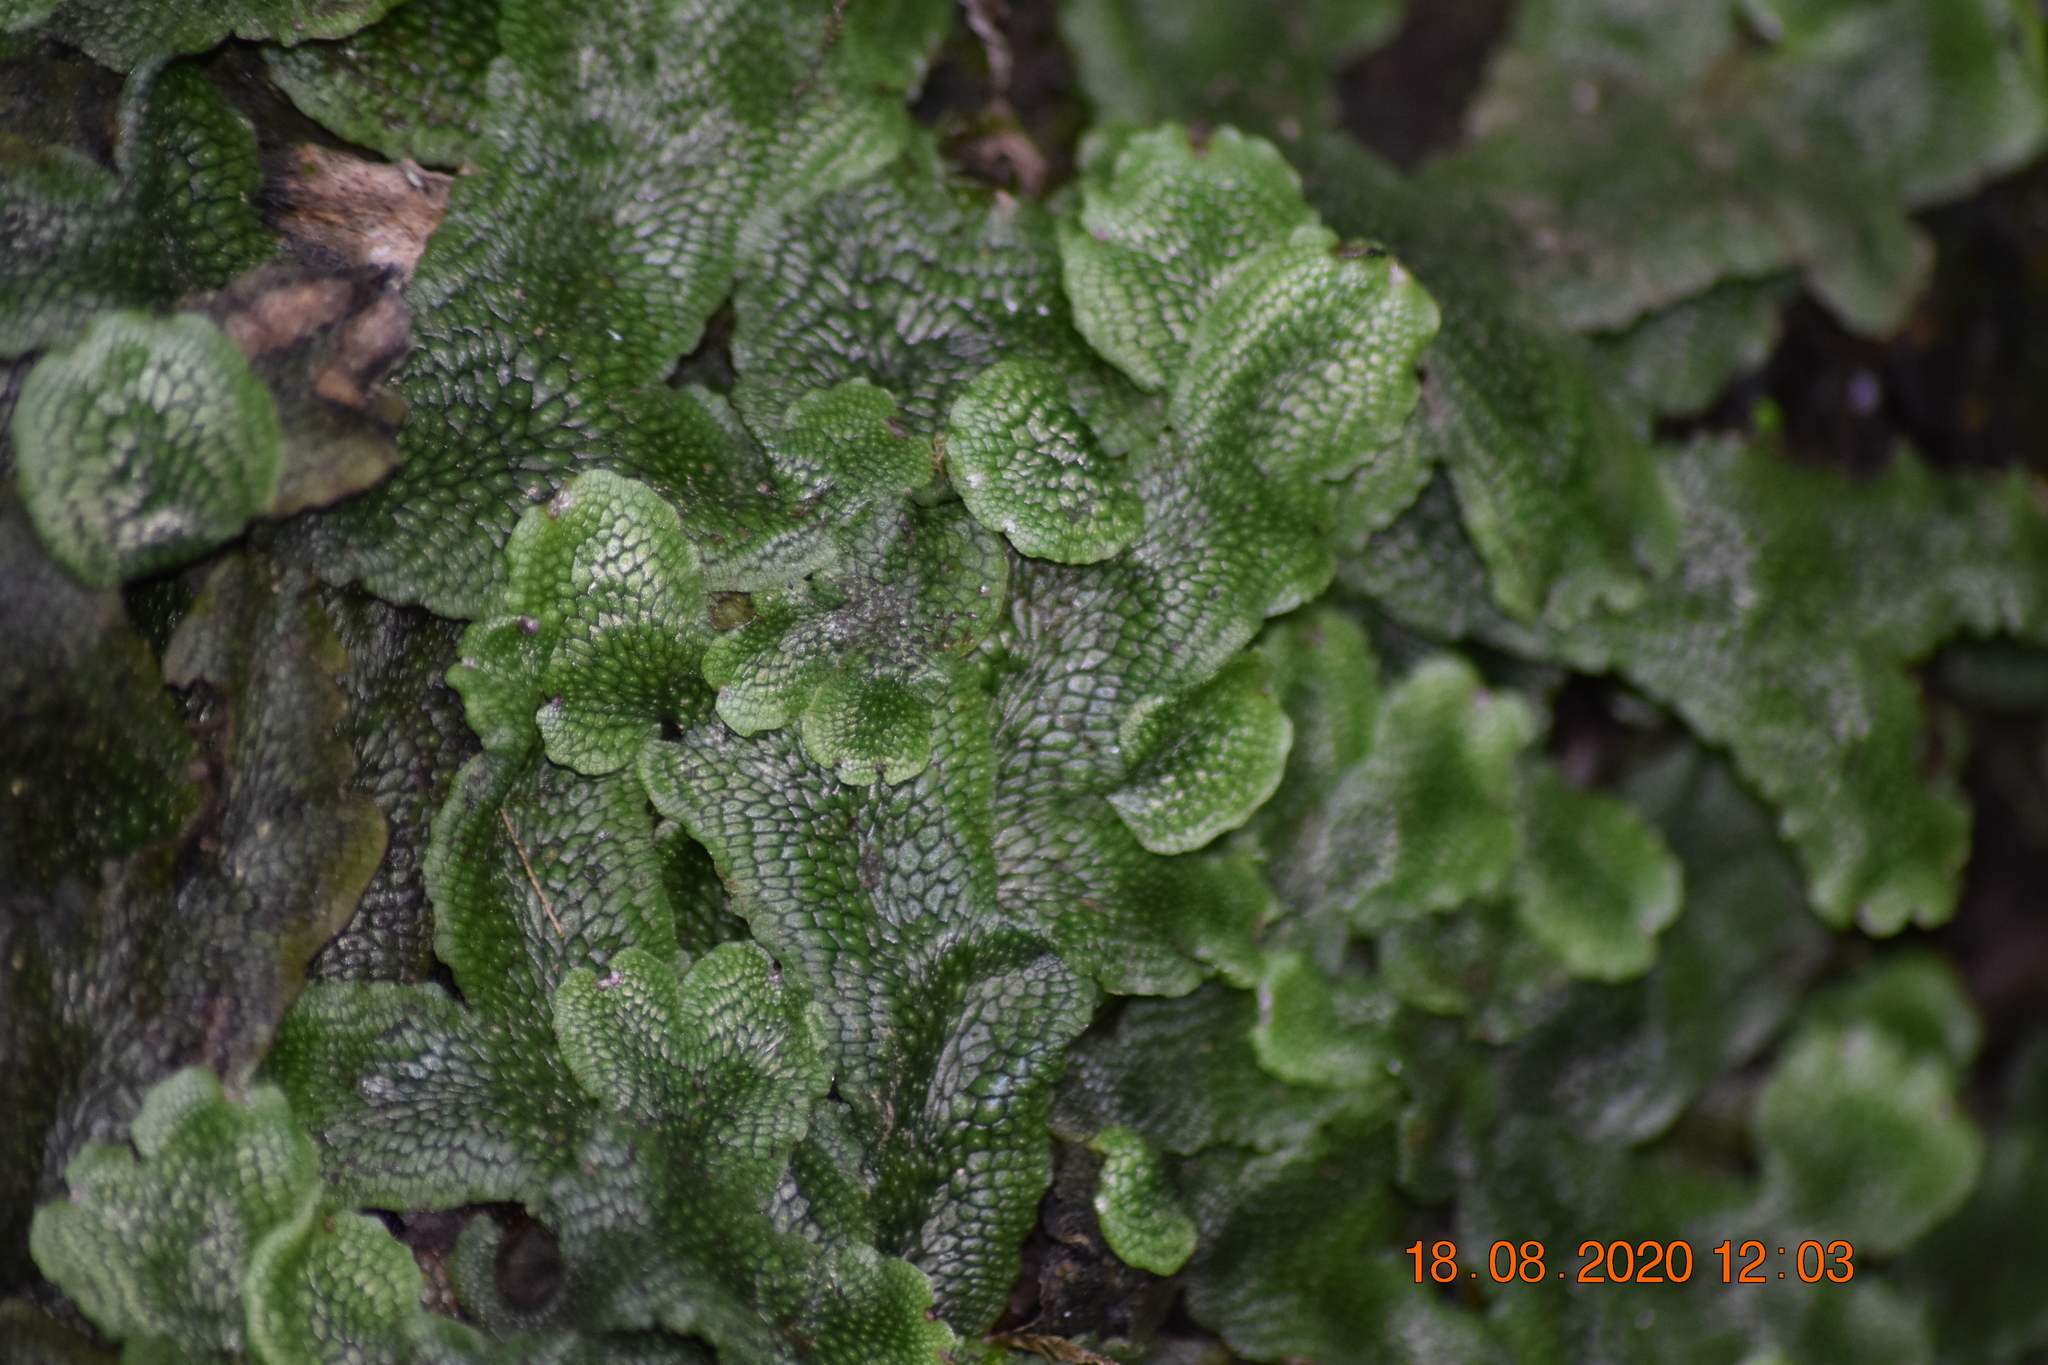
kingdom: Plantae
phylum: Marchantiophyta
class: Marchantiopsida
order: Marchantiales
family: Conocephalaceae
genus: Conocephalum
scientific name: Conocephalum salebrosum
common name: Cat-tongue liverwort
